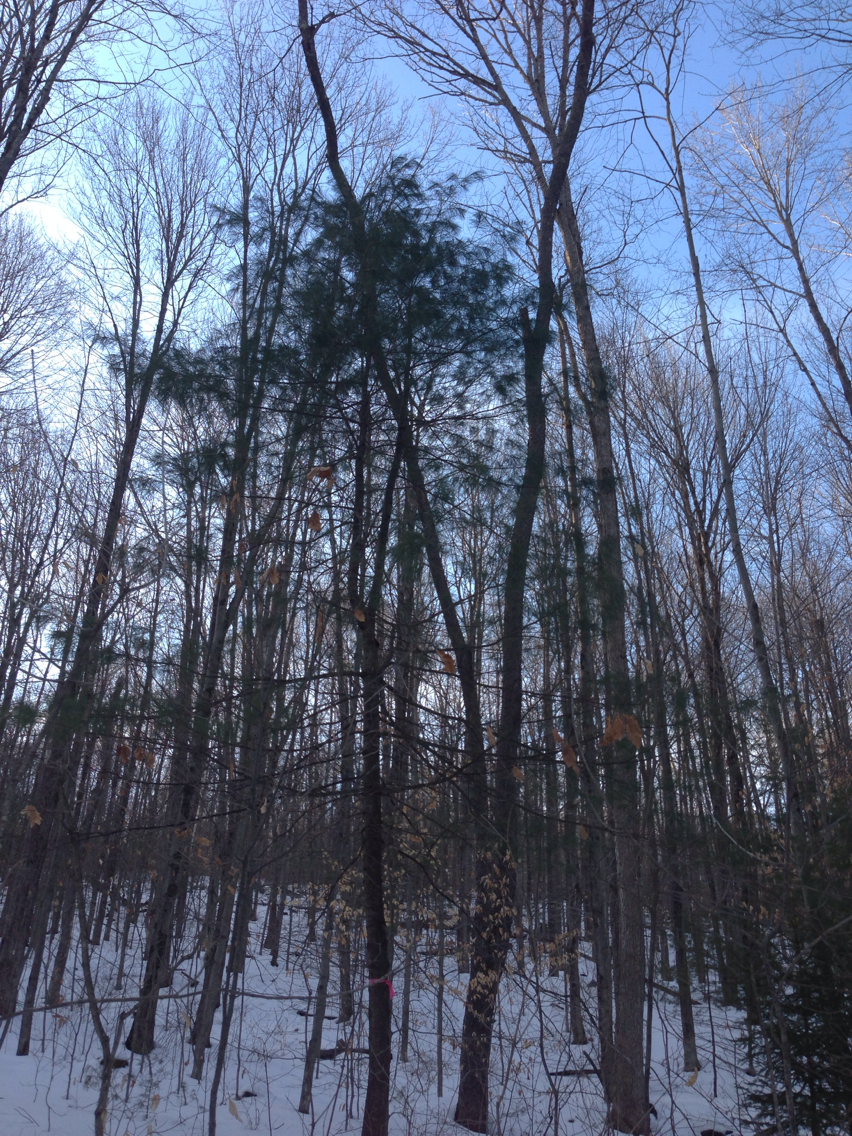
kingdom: Plantae
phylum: Tracheophyta
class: Pinopsida
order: Pinales
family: Pinaceae
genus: Pinus
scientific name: Pinus strobus
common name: Weymouth pine
